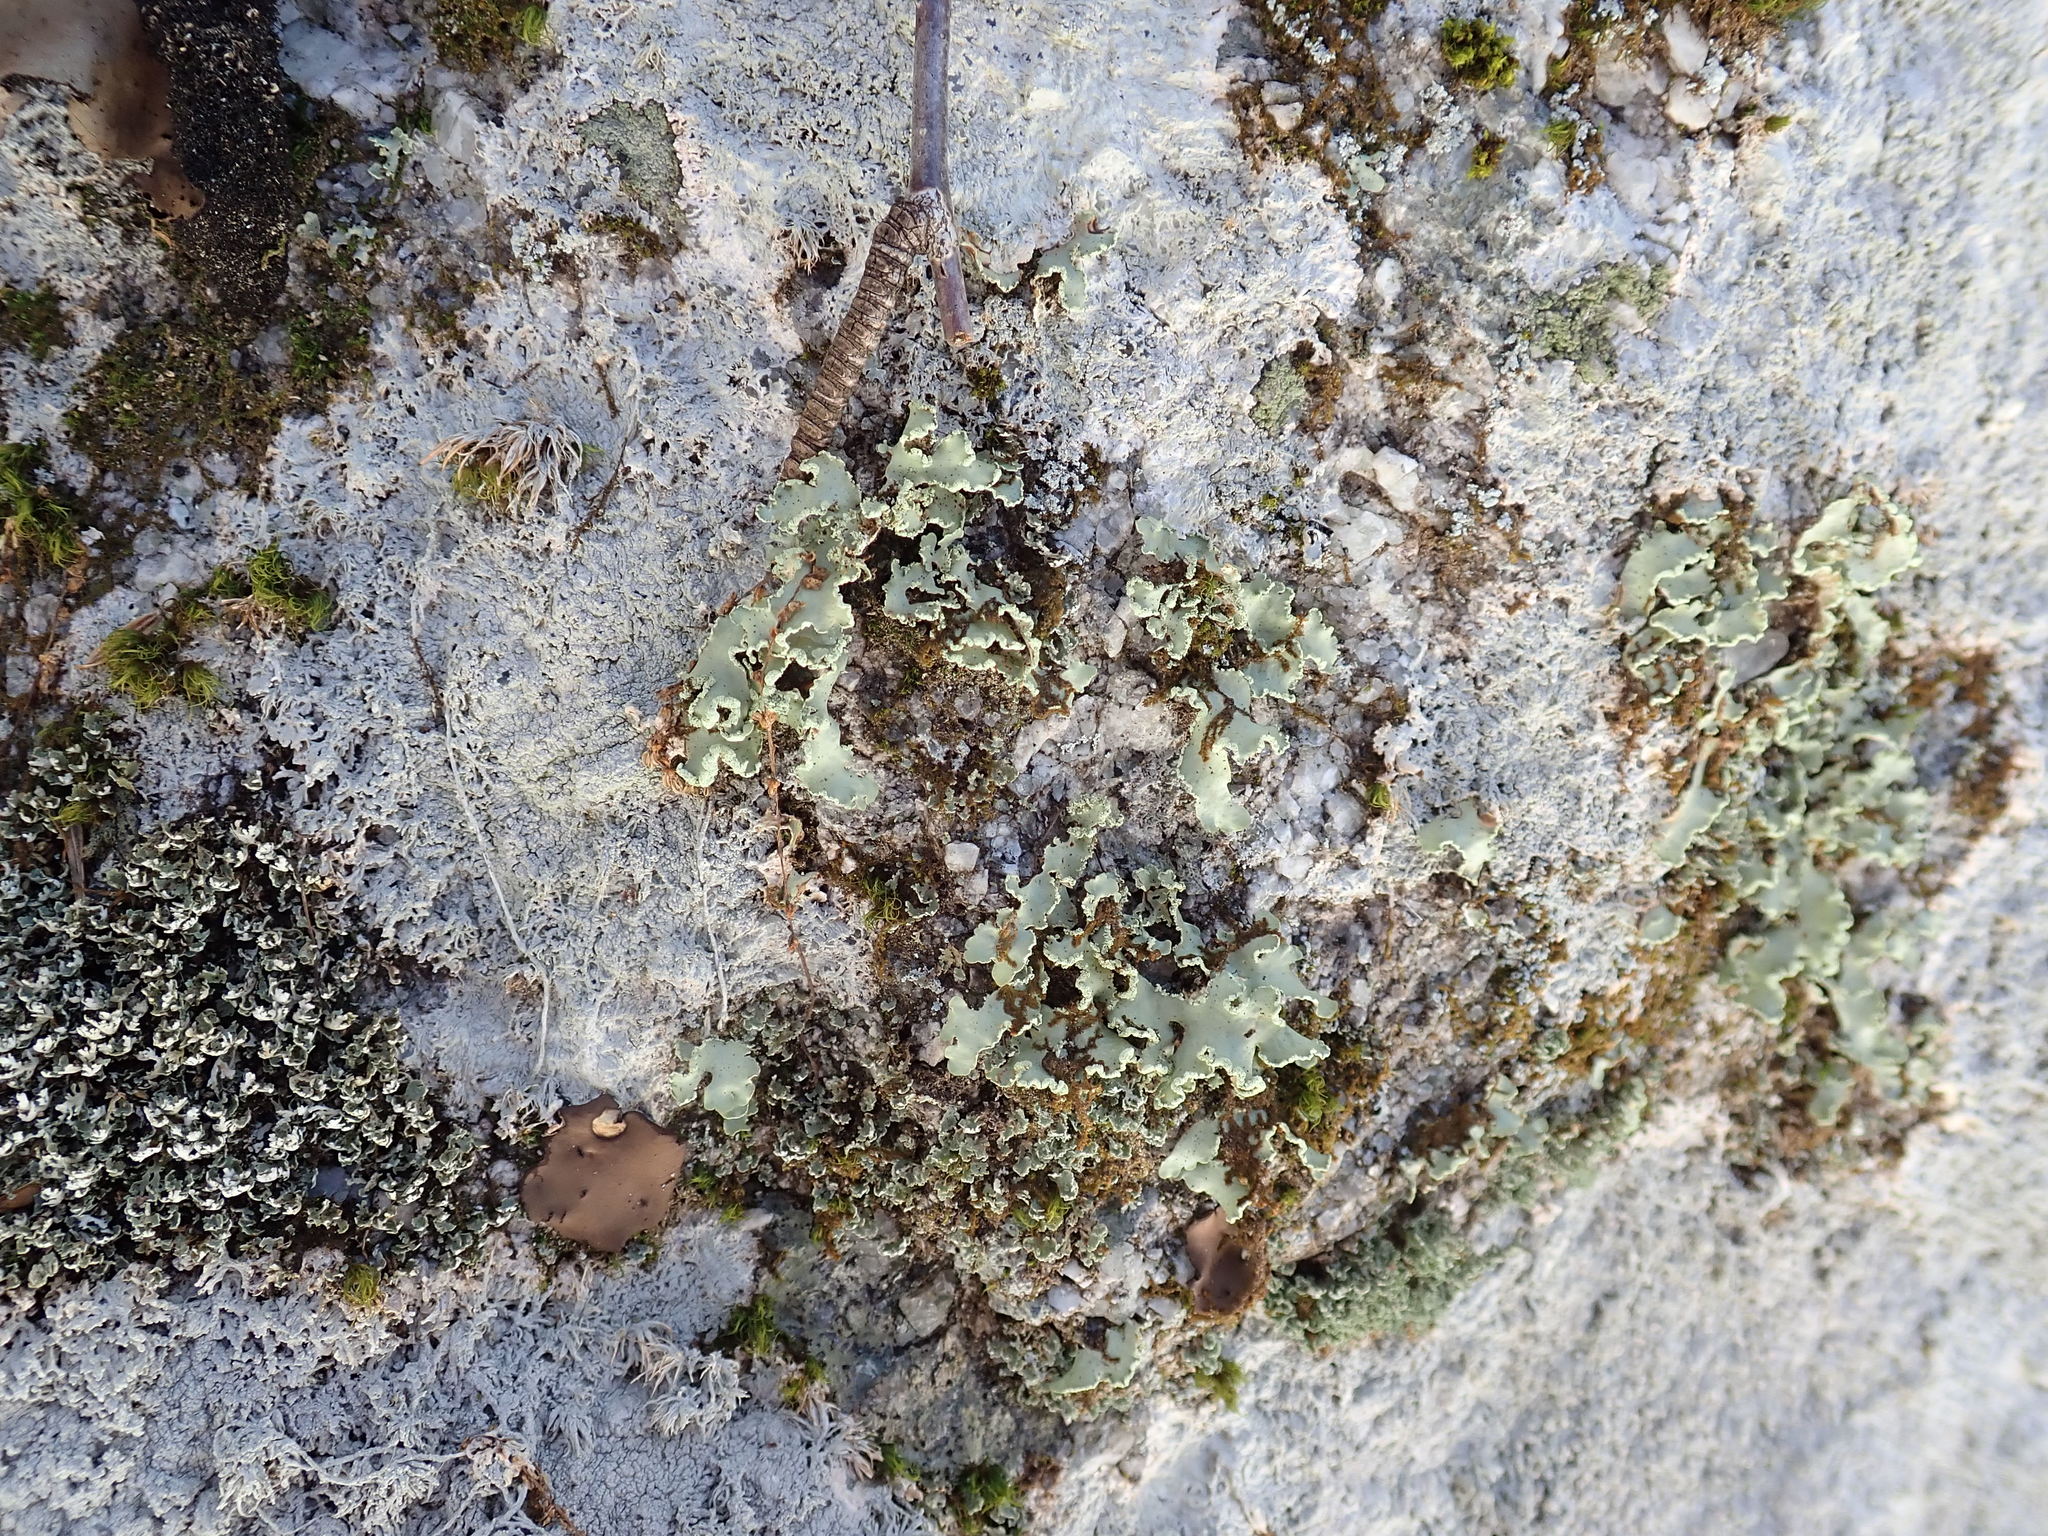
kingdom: Fungi
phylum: Ascomycota
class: Lecanoromycetes
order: Lecanorales
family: Parmeliaceae
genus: Usnocetraria
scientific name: Usnocetraria oakesiana
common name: Yellow ribbon lichen
